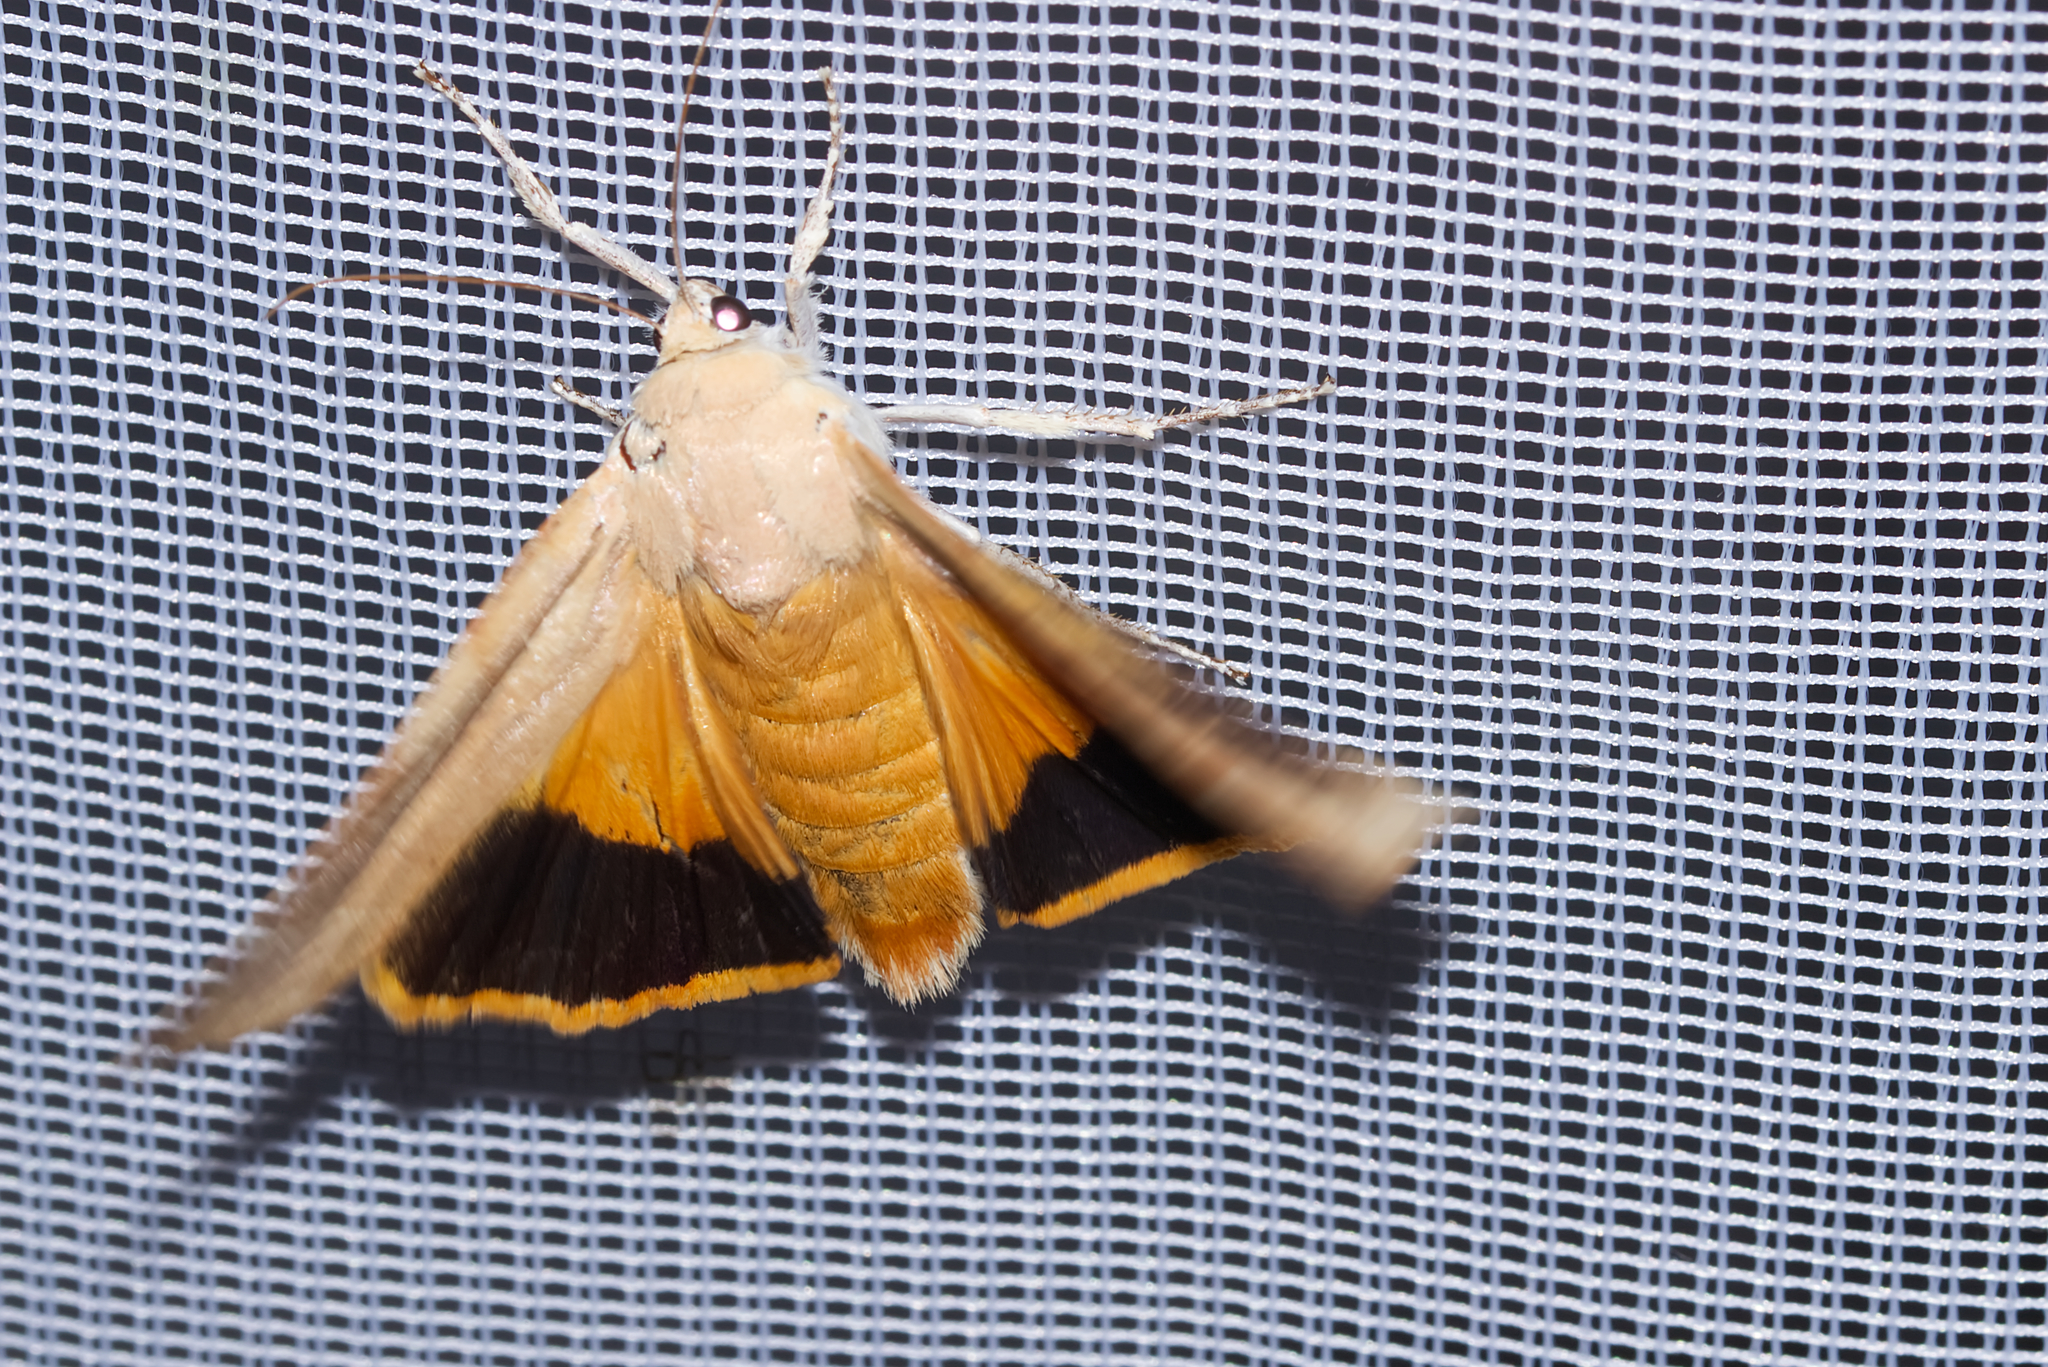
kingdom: Animalia
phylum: Arthropoda
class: Insecta
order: Lepidoptera
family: Noctuidae
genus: Noctua
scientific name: Noctua fimbriata
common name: Broad-bordered yellow underwing
